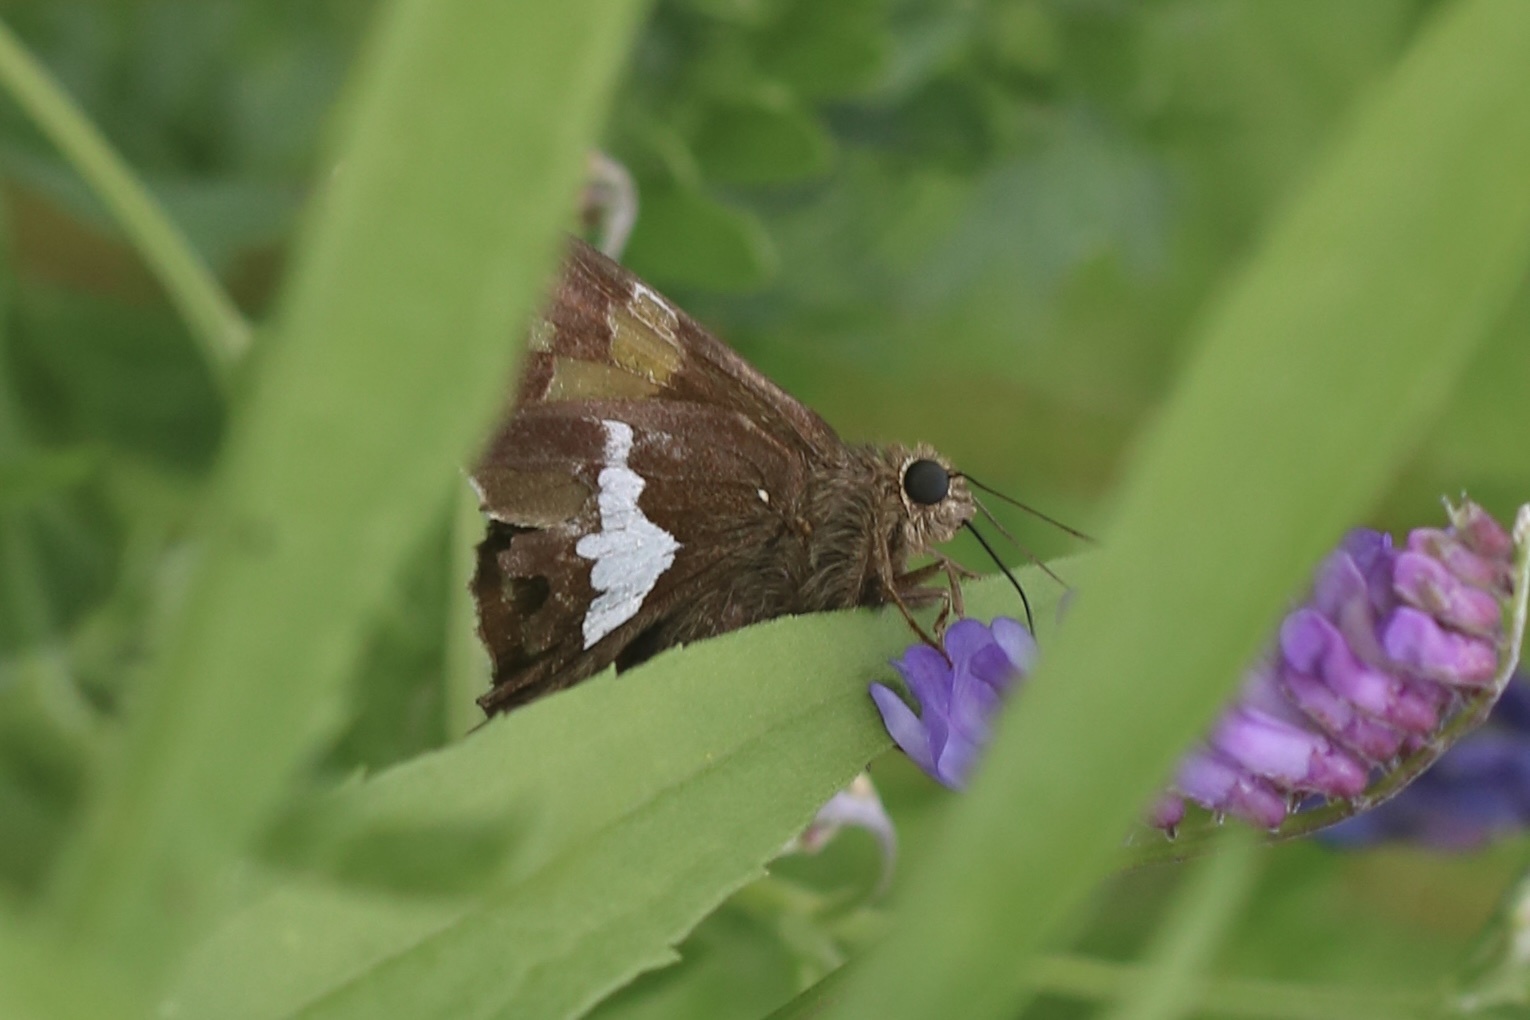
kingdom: Animalia
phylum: Arthropoda
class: Insecta
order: Lepidoptera
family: Hesperiidae
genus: Epargyreus
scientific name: Epargyreus clarus
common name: Silver-spotted skipper
